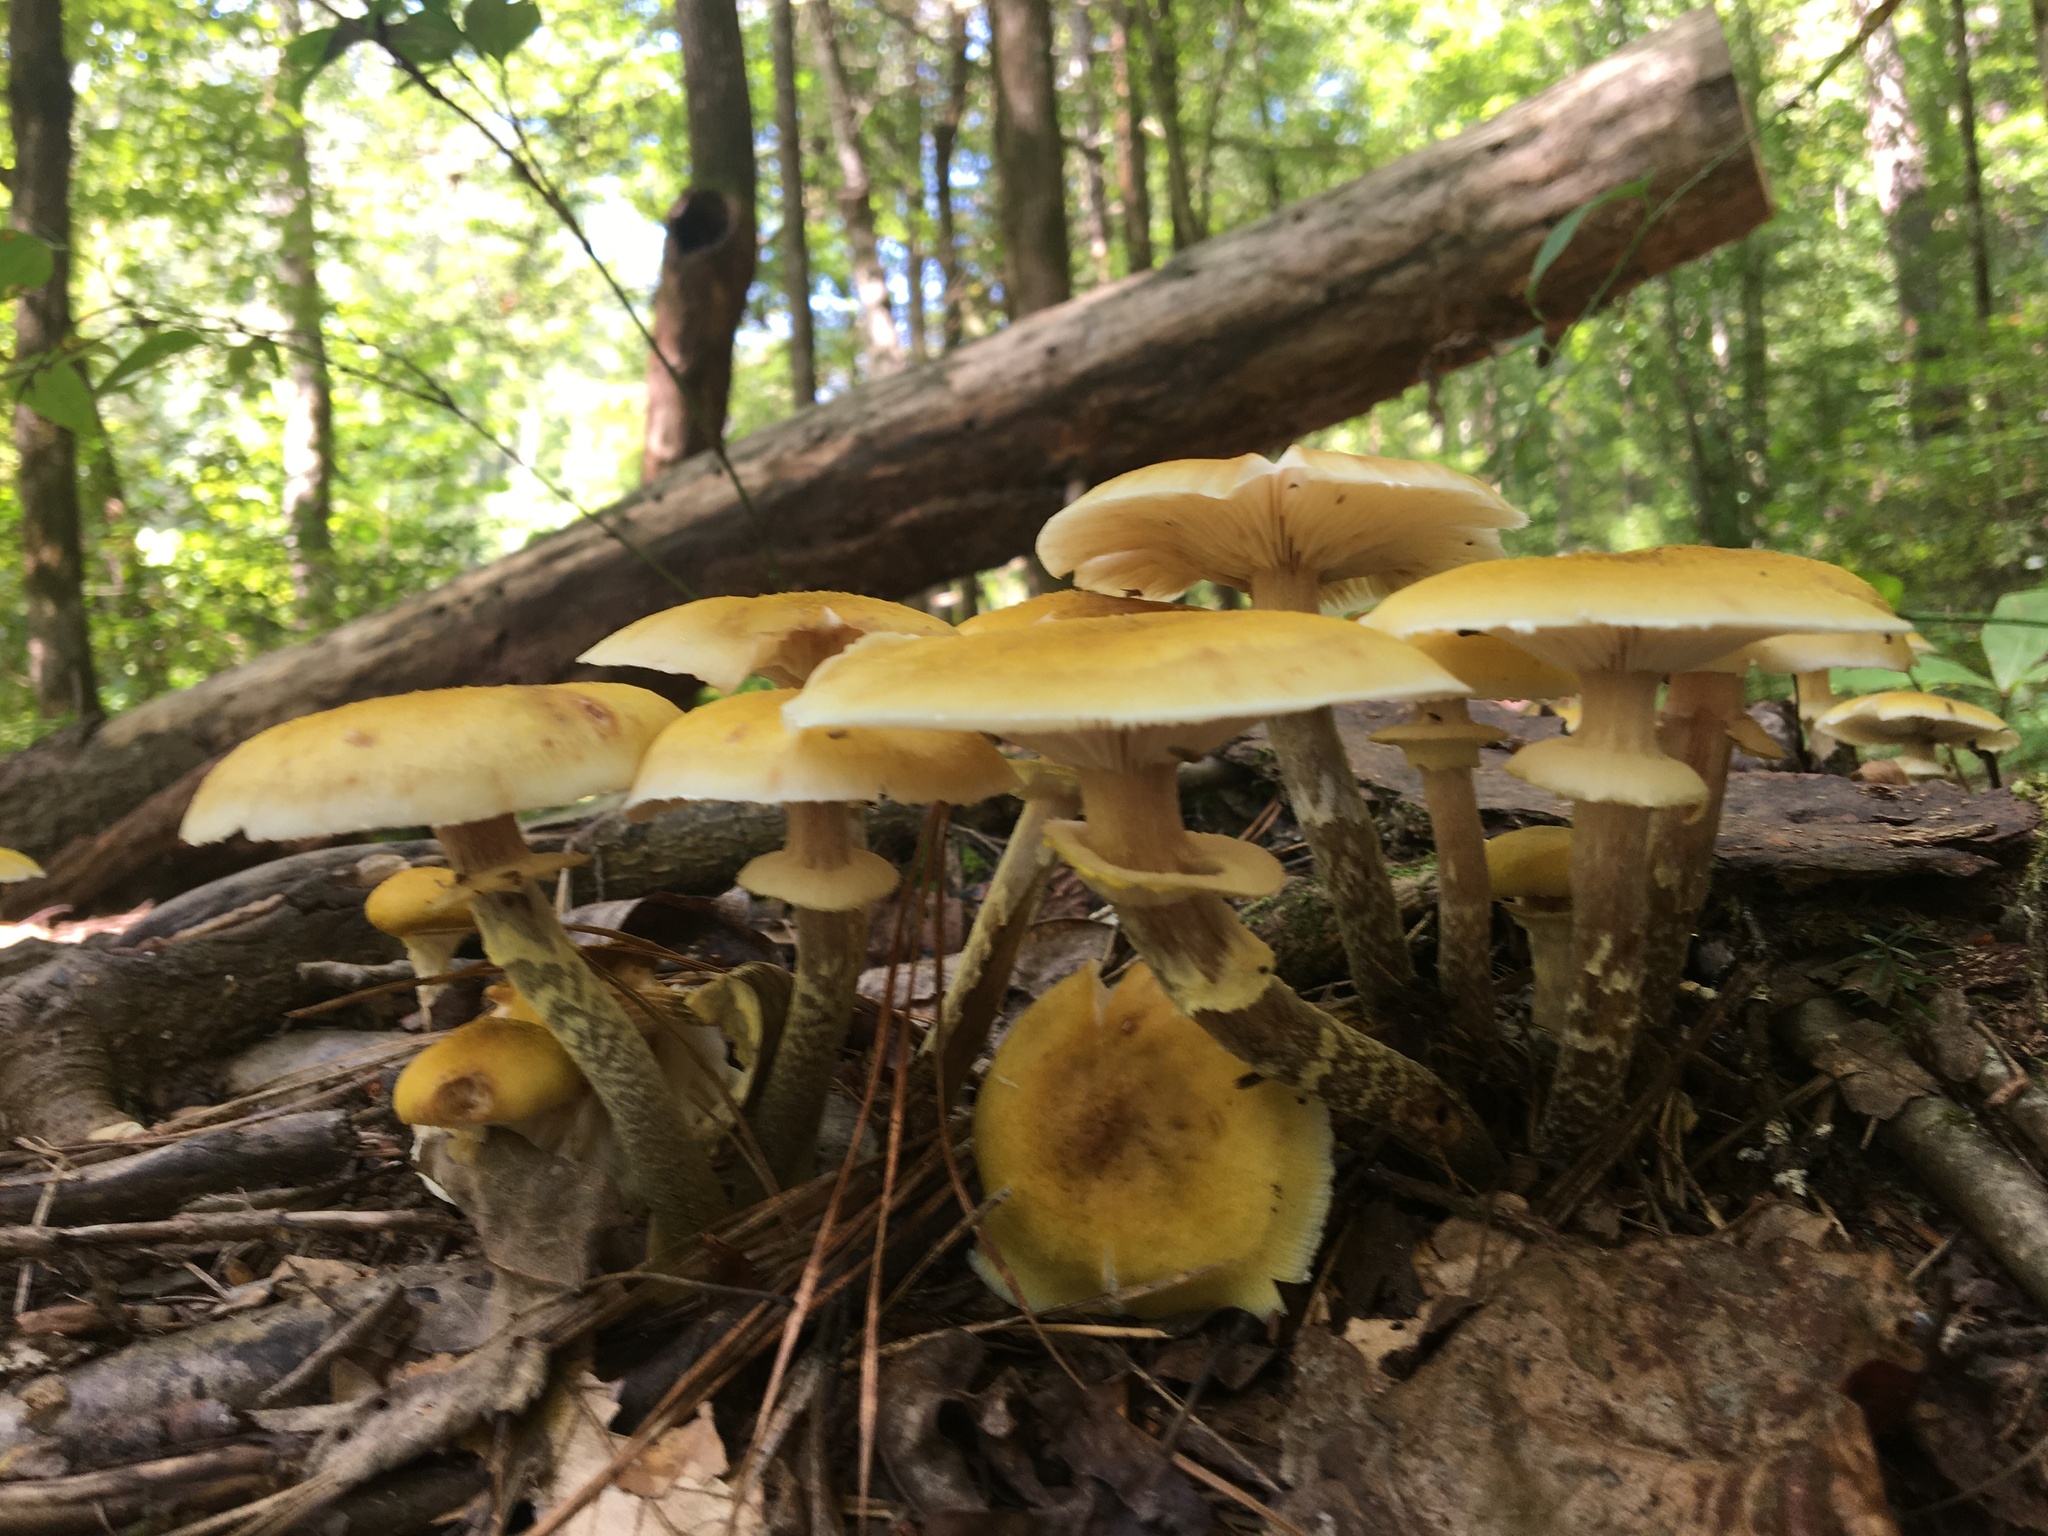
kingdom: Fungi
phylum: Basidiomycota
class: Agaricomycetes
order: Agaricales
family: Physalacriaceae
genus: Armillaria
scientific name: Armillaria mellea
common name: Honey fungus
